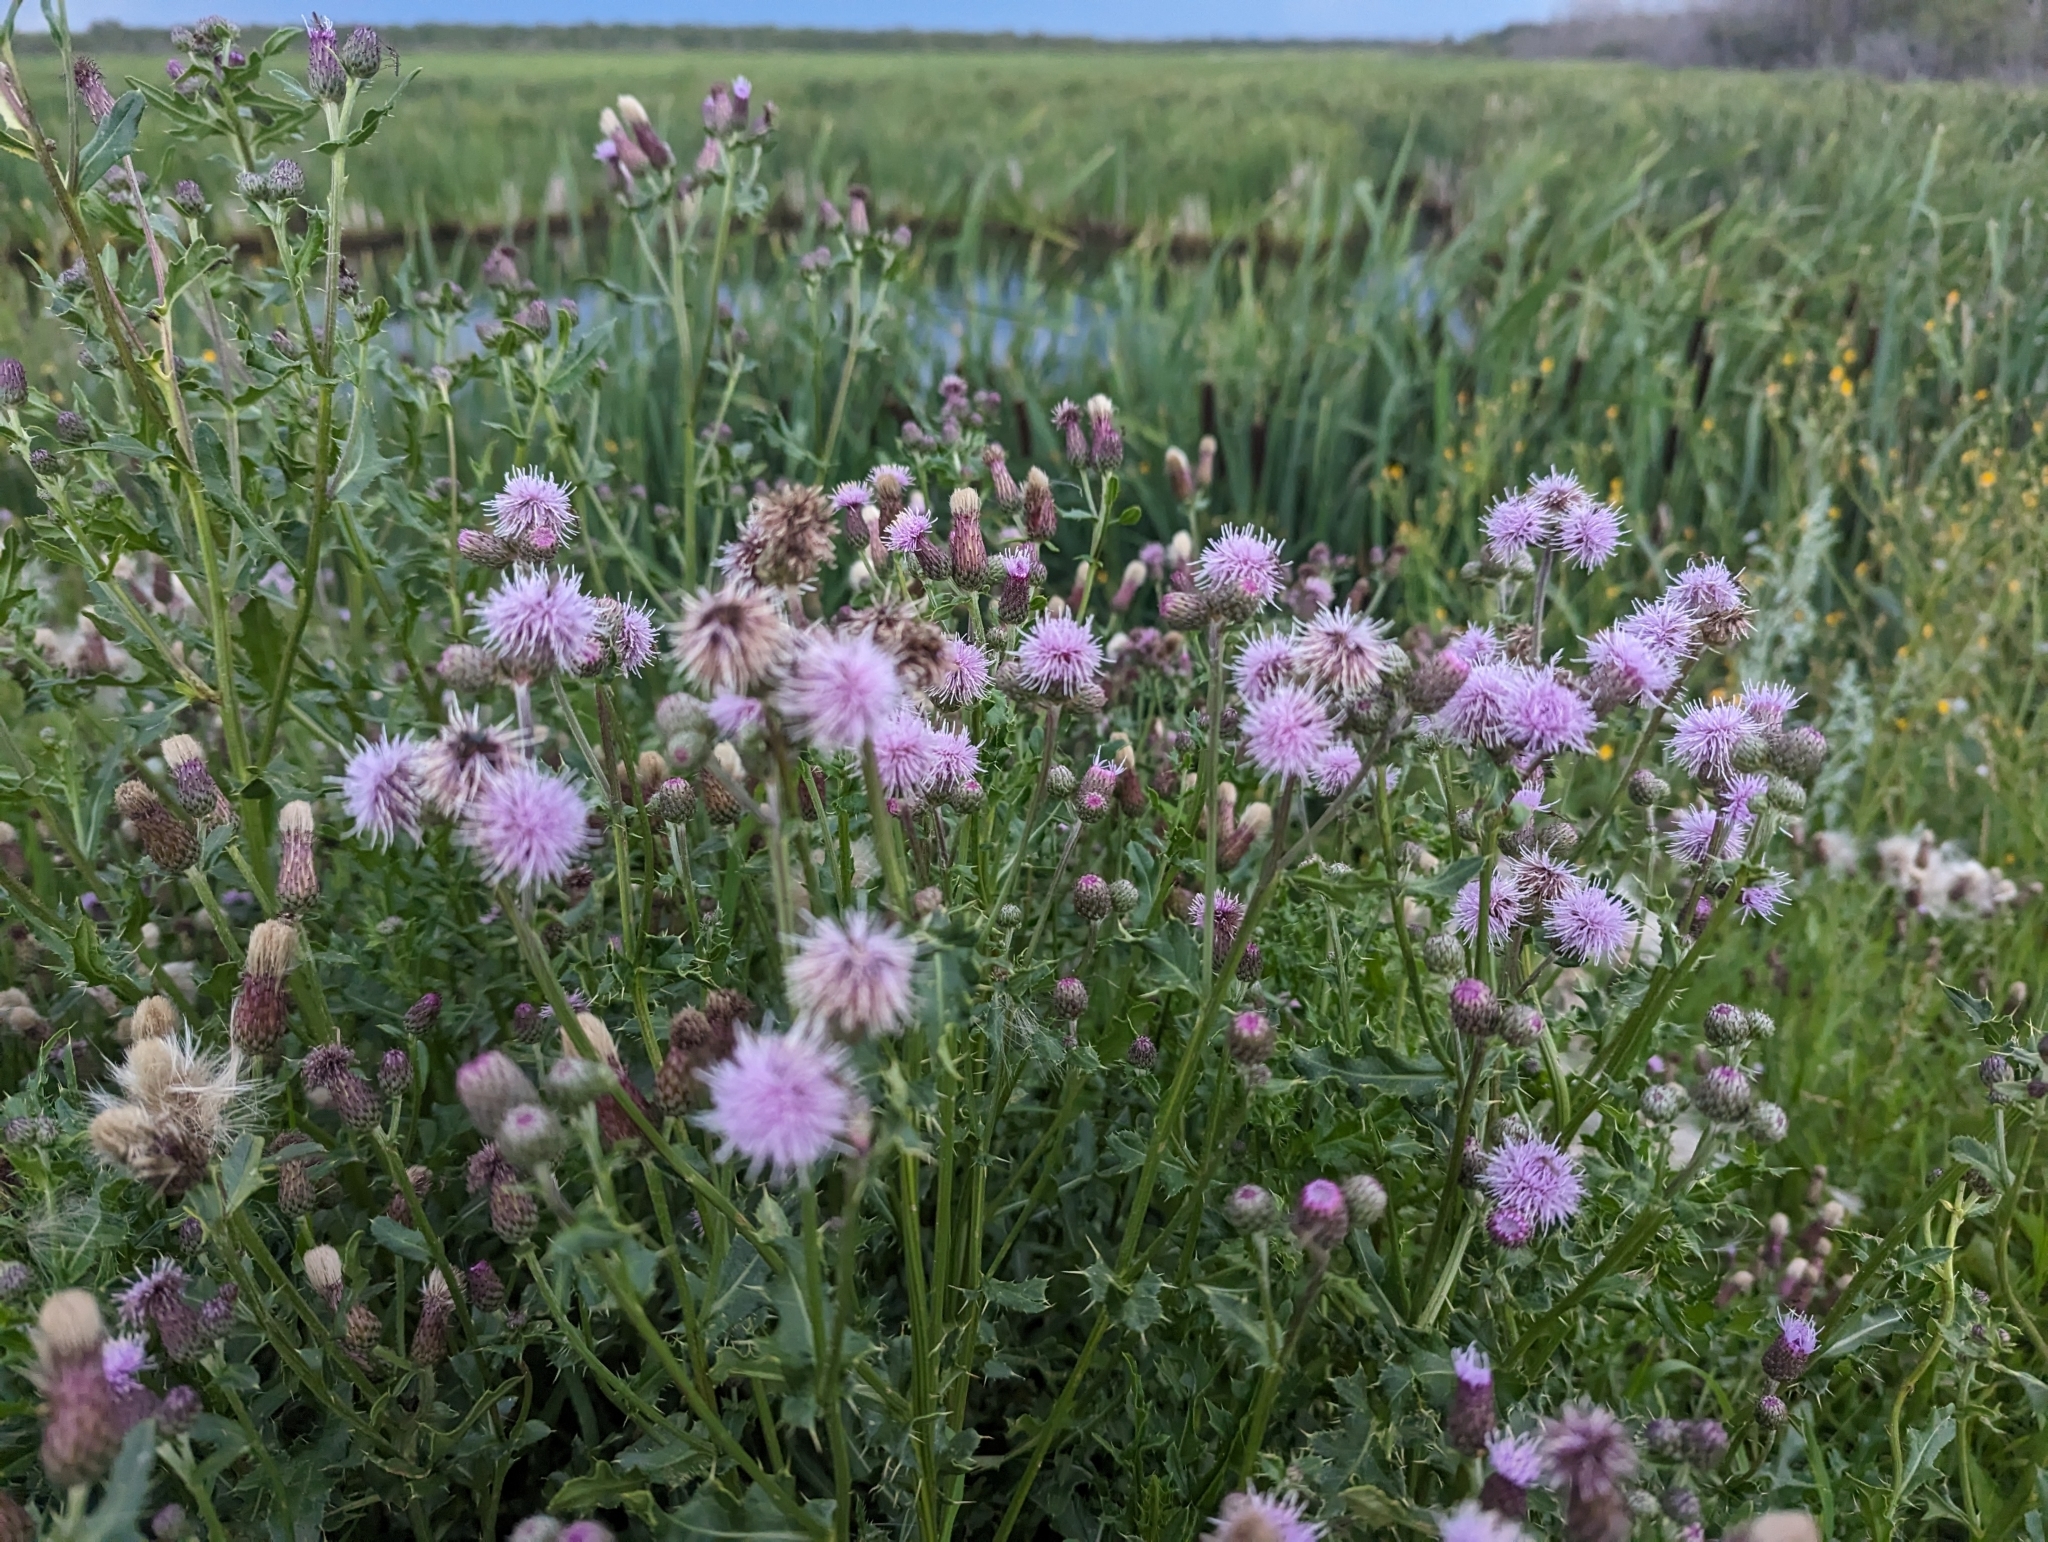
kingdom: Plantae
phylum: Tracheophyta
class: Magnoliopsida
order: Asterales
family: Asteraceae
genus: Cirsium
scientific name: Cirsium arvense
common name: Creeping thistle
